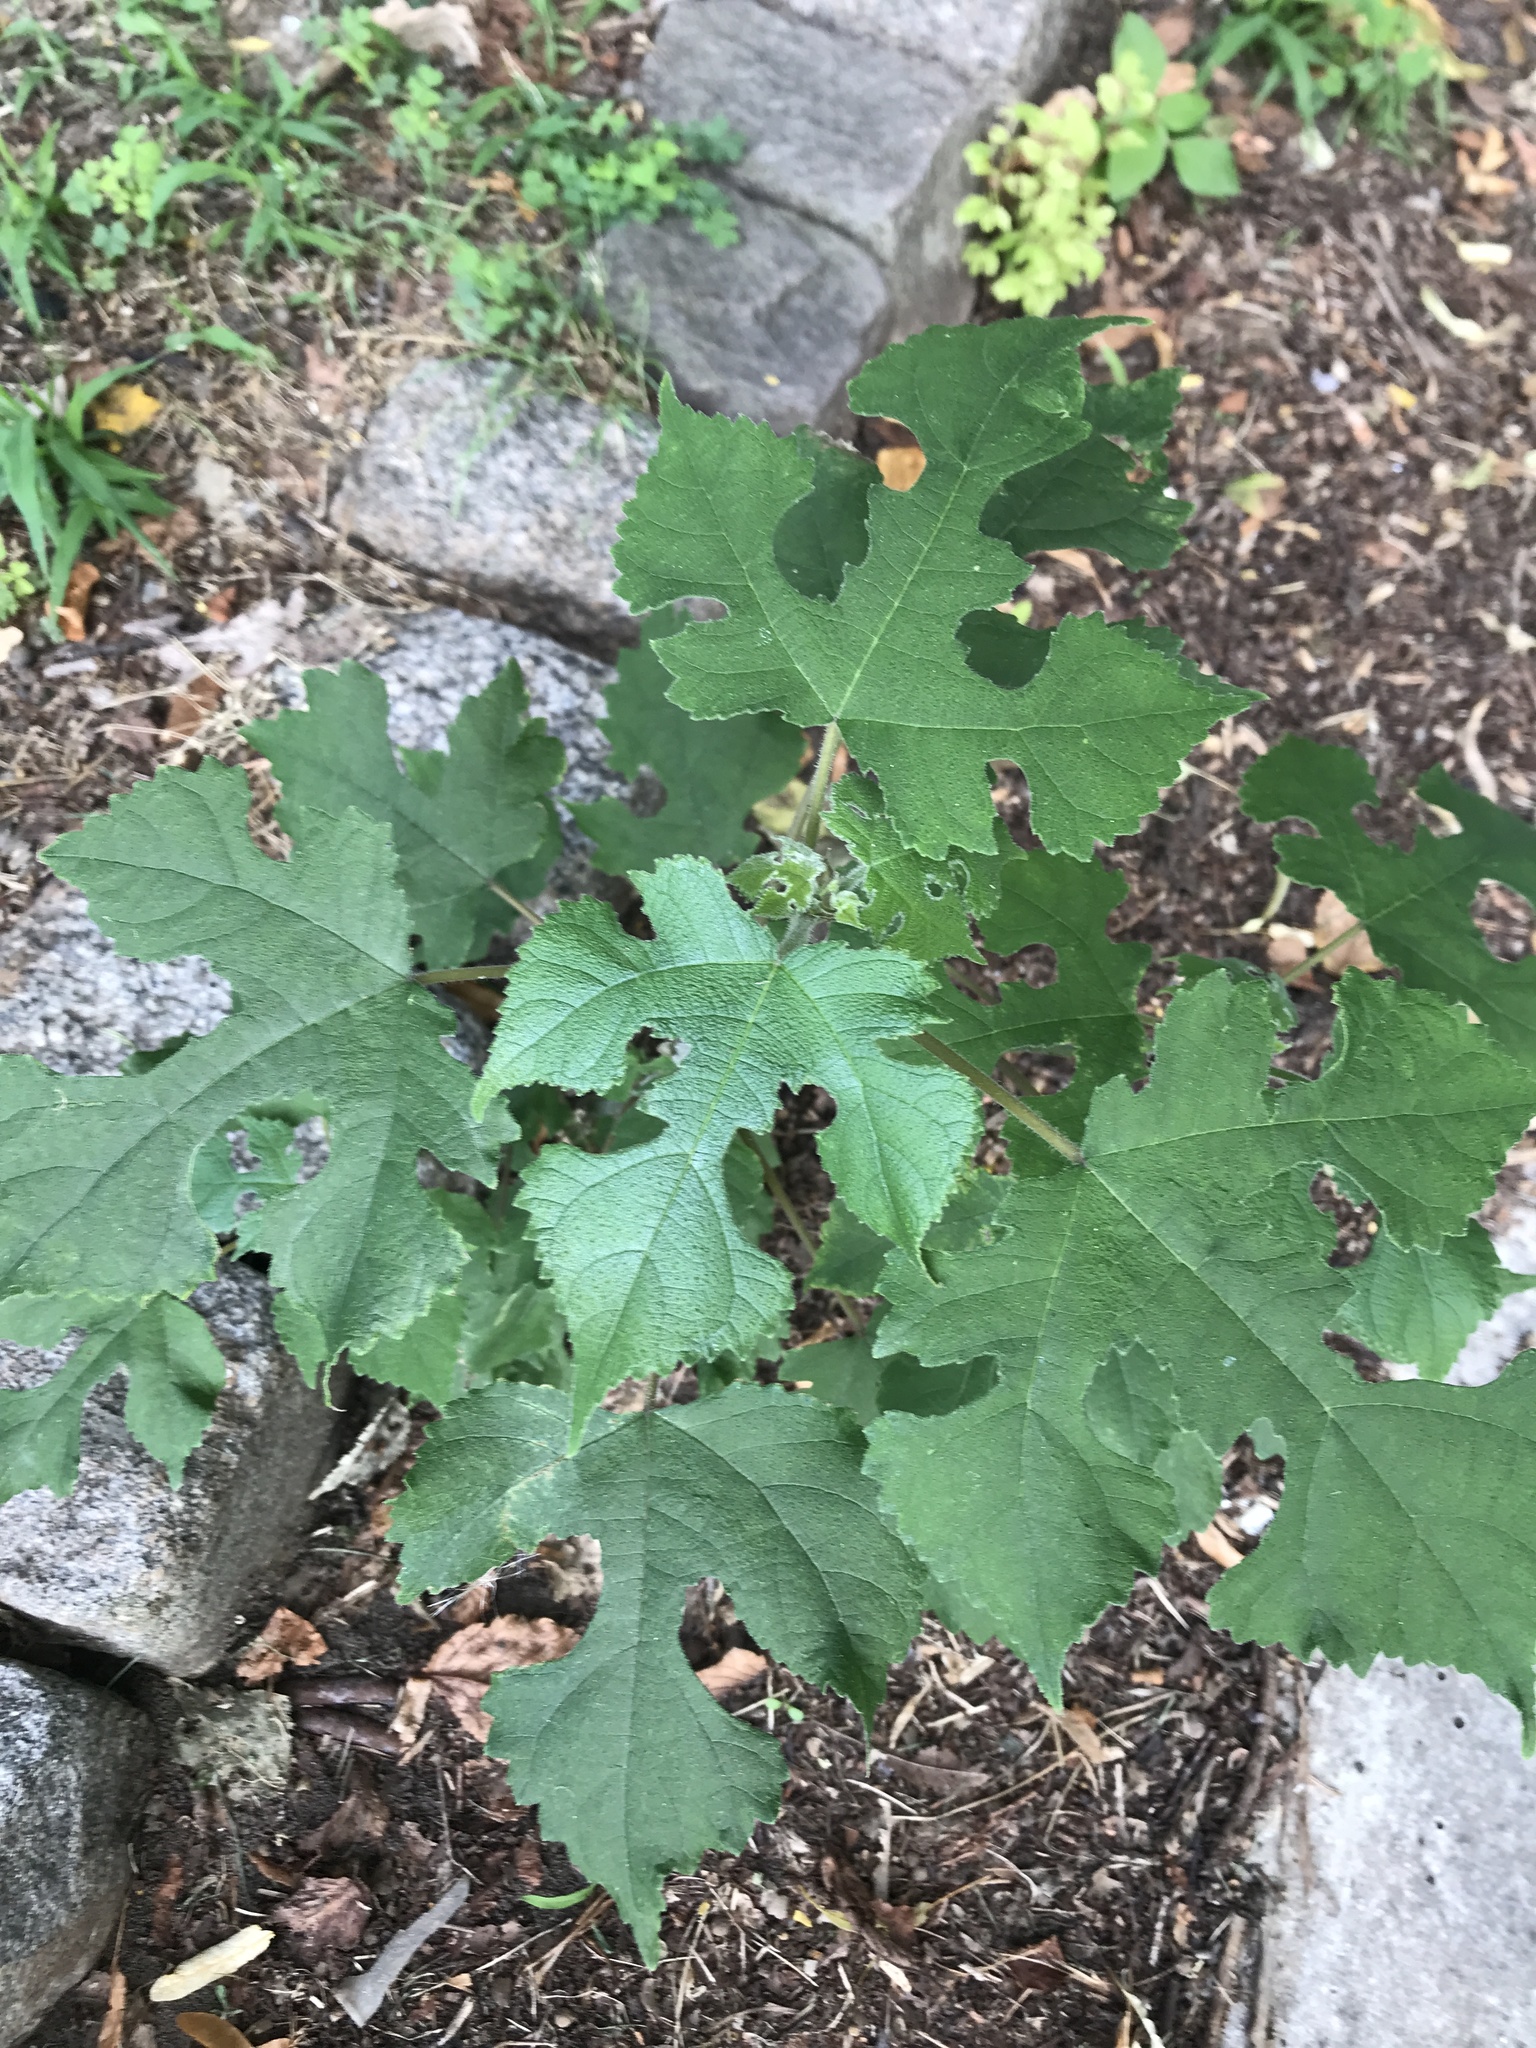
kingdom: Plantae
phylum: Tracheophyta
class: Magnoliopsida
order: Rosales
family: Moraceae
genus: Broussonetia
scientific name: Broussonetia papyrifera
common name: Paper mulberry
